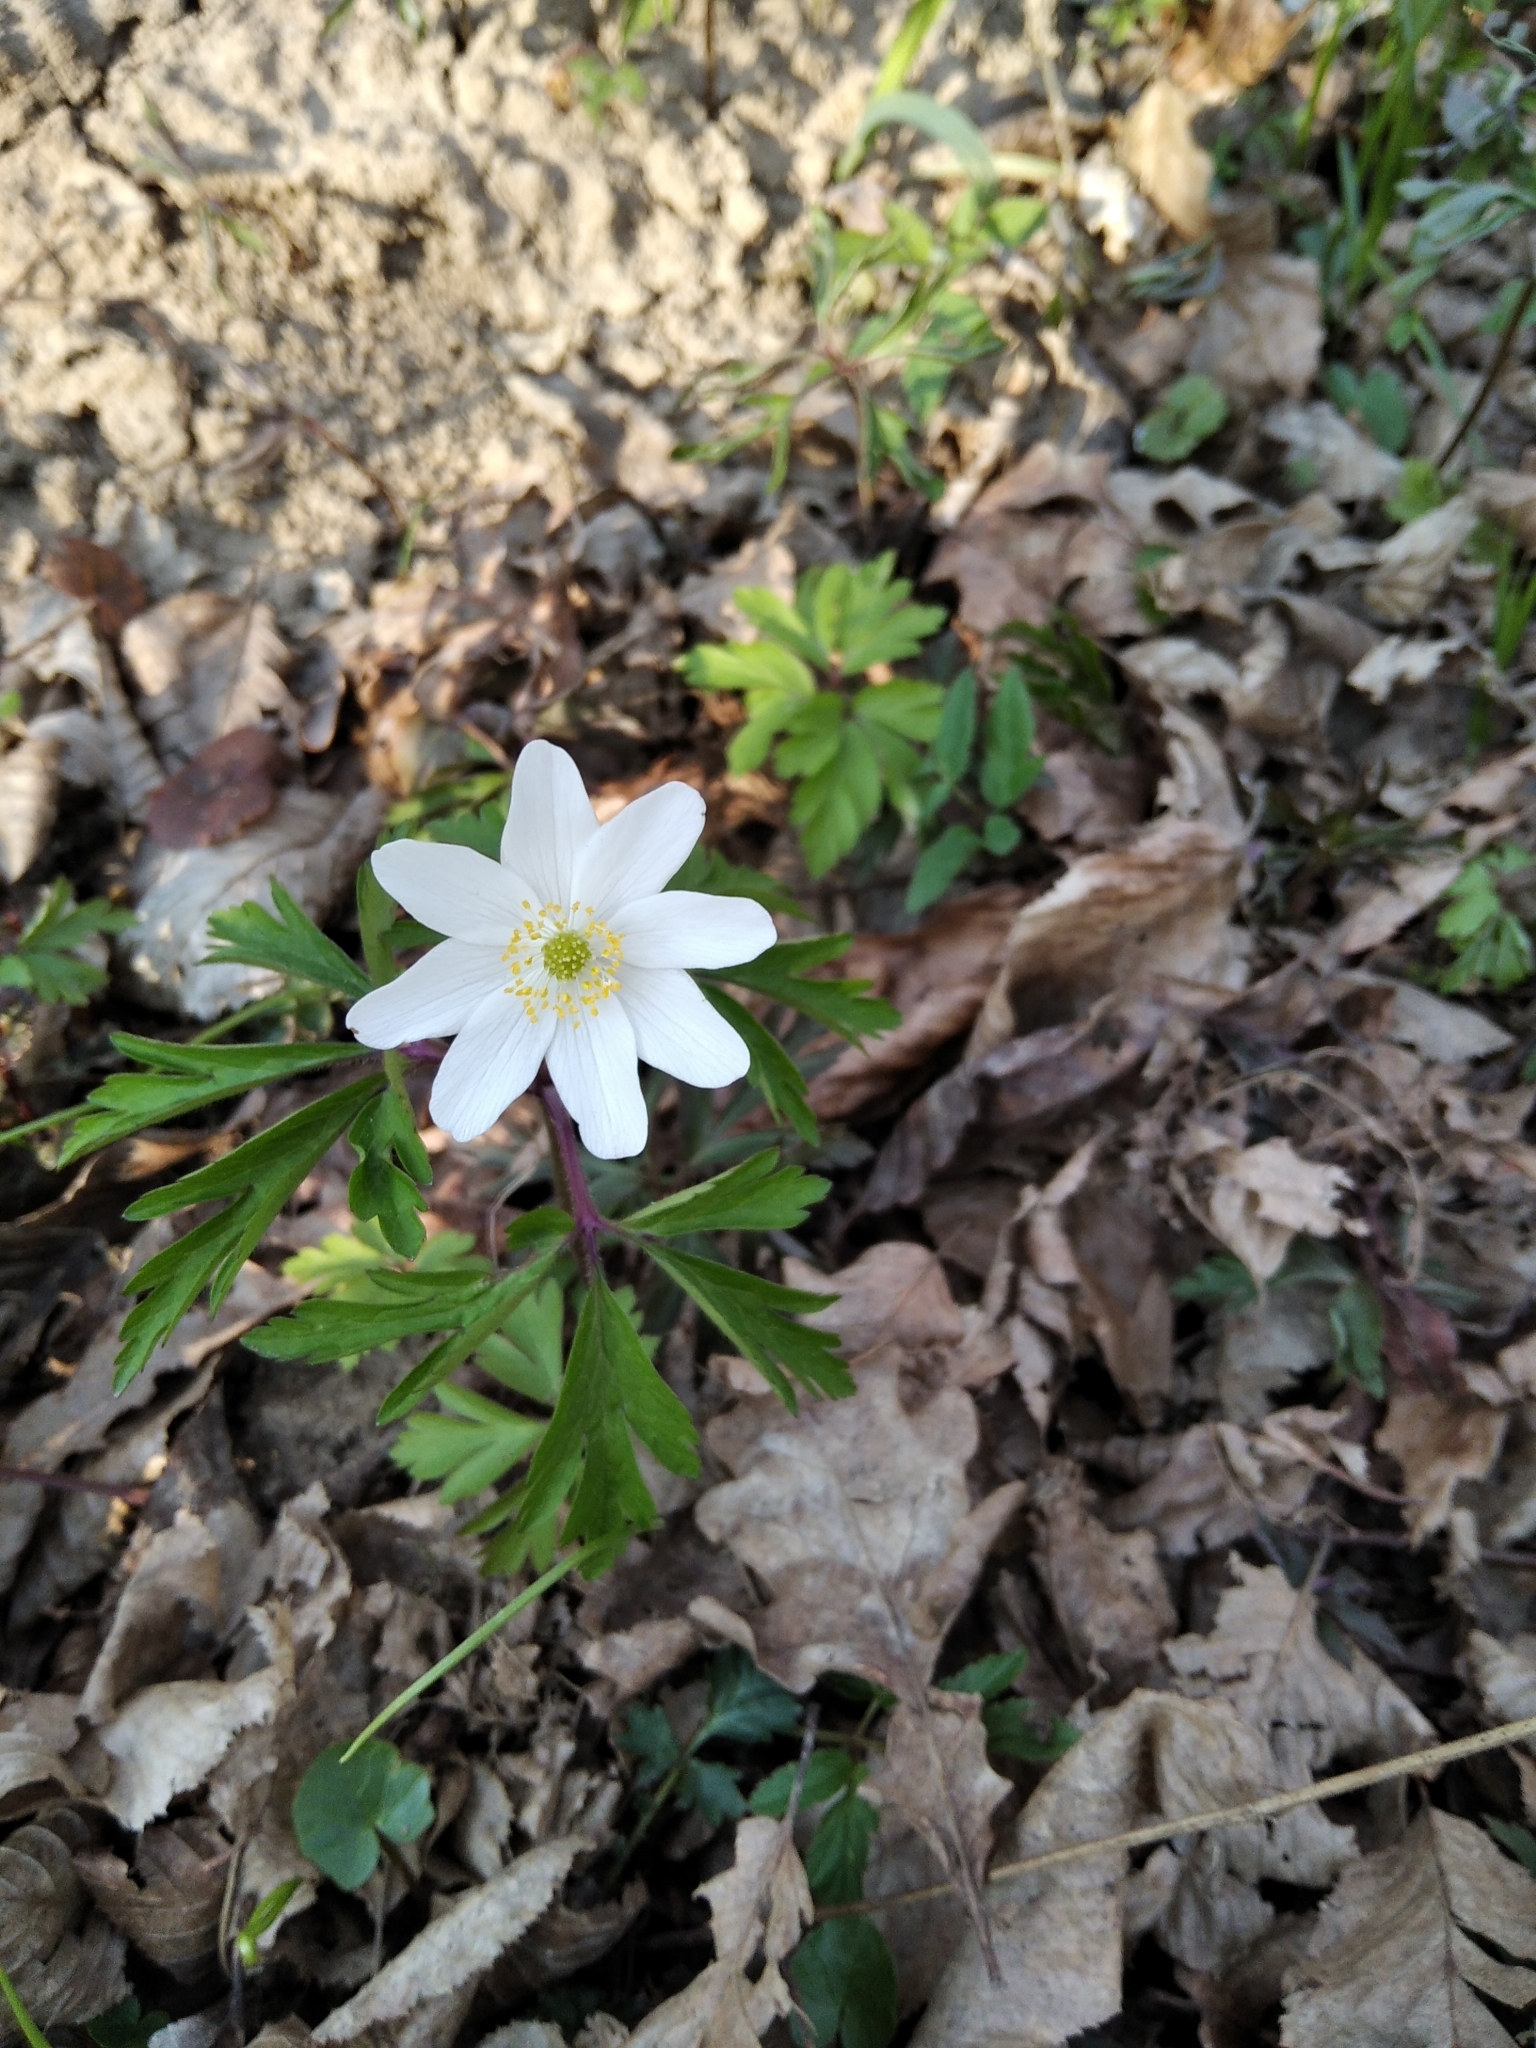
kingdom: Plantae
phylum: Tracheophyta
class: Magnoliopsida
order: Ranunculales
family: Ranunculaceae
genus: Anemone
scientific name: Anemone nemorosa
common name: Wood anemone
